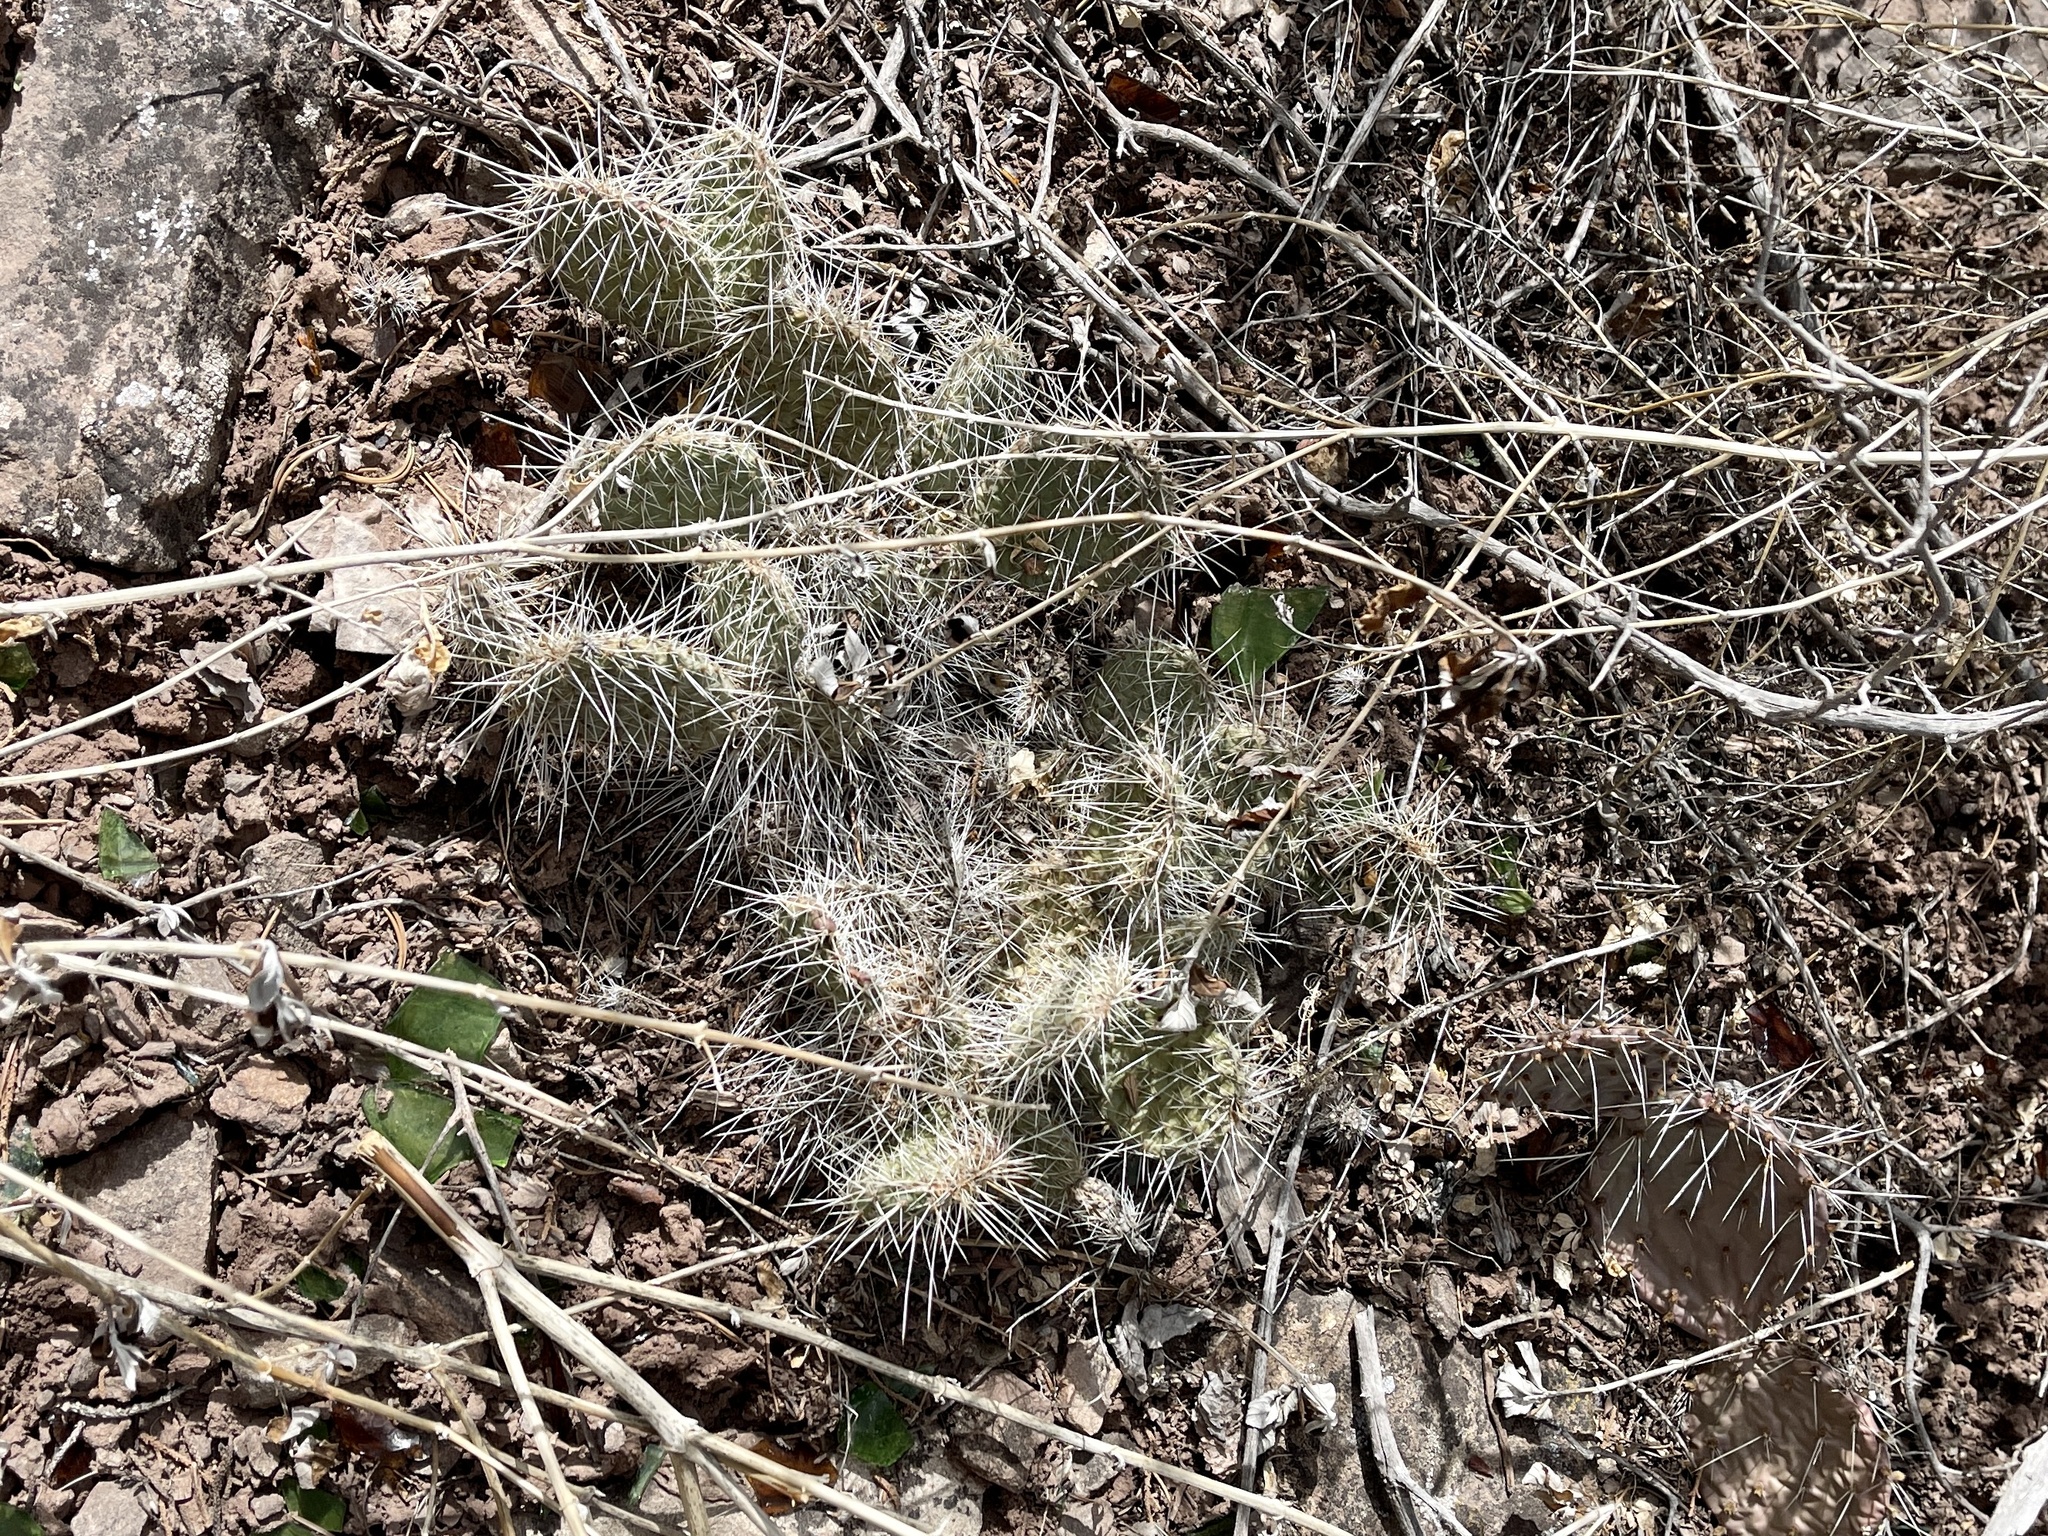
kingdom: Plantae
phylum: Tracheophyta
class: Magnoliopsida
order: Caryophyllales
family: Cactaceae
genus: Opuntia
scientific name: Opuntia polyacantha
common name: Plains prickly-pear
